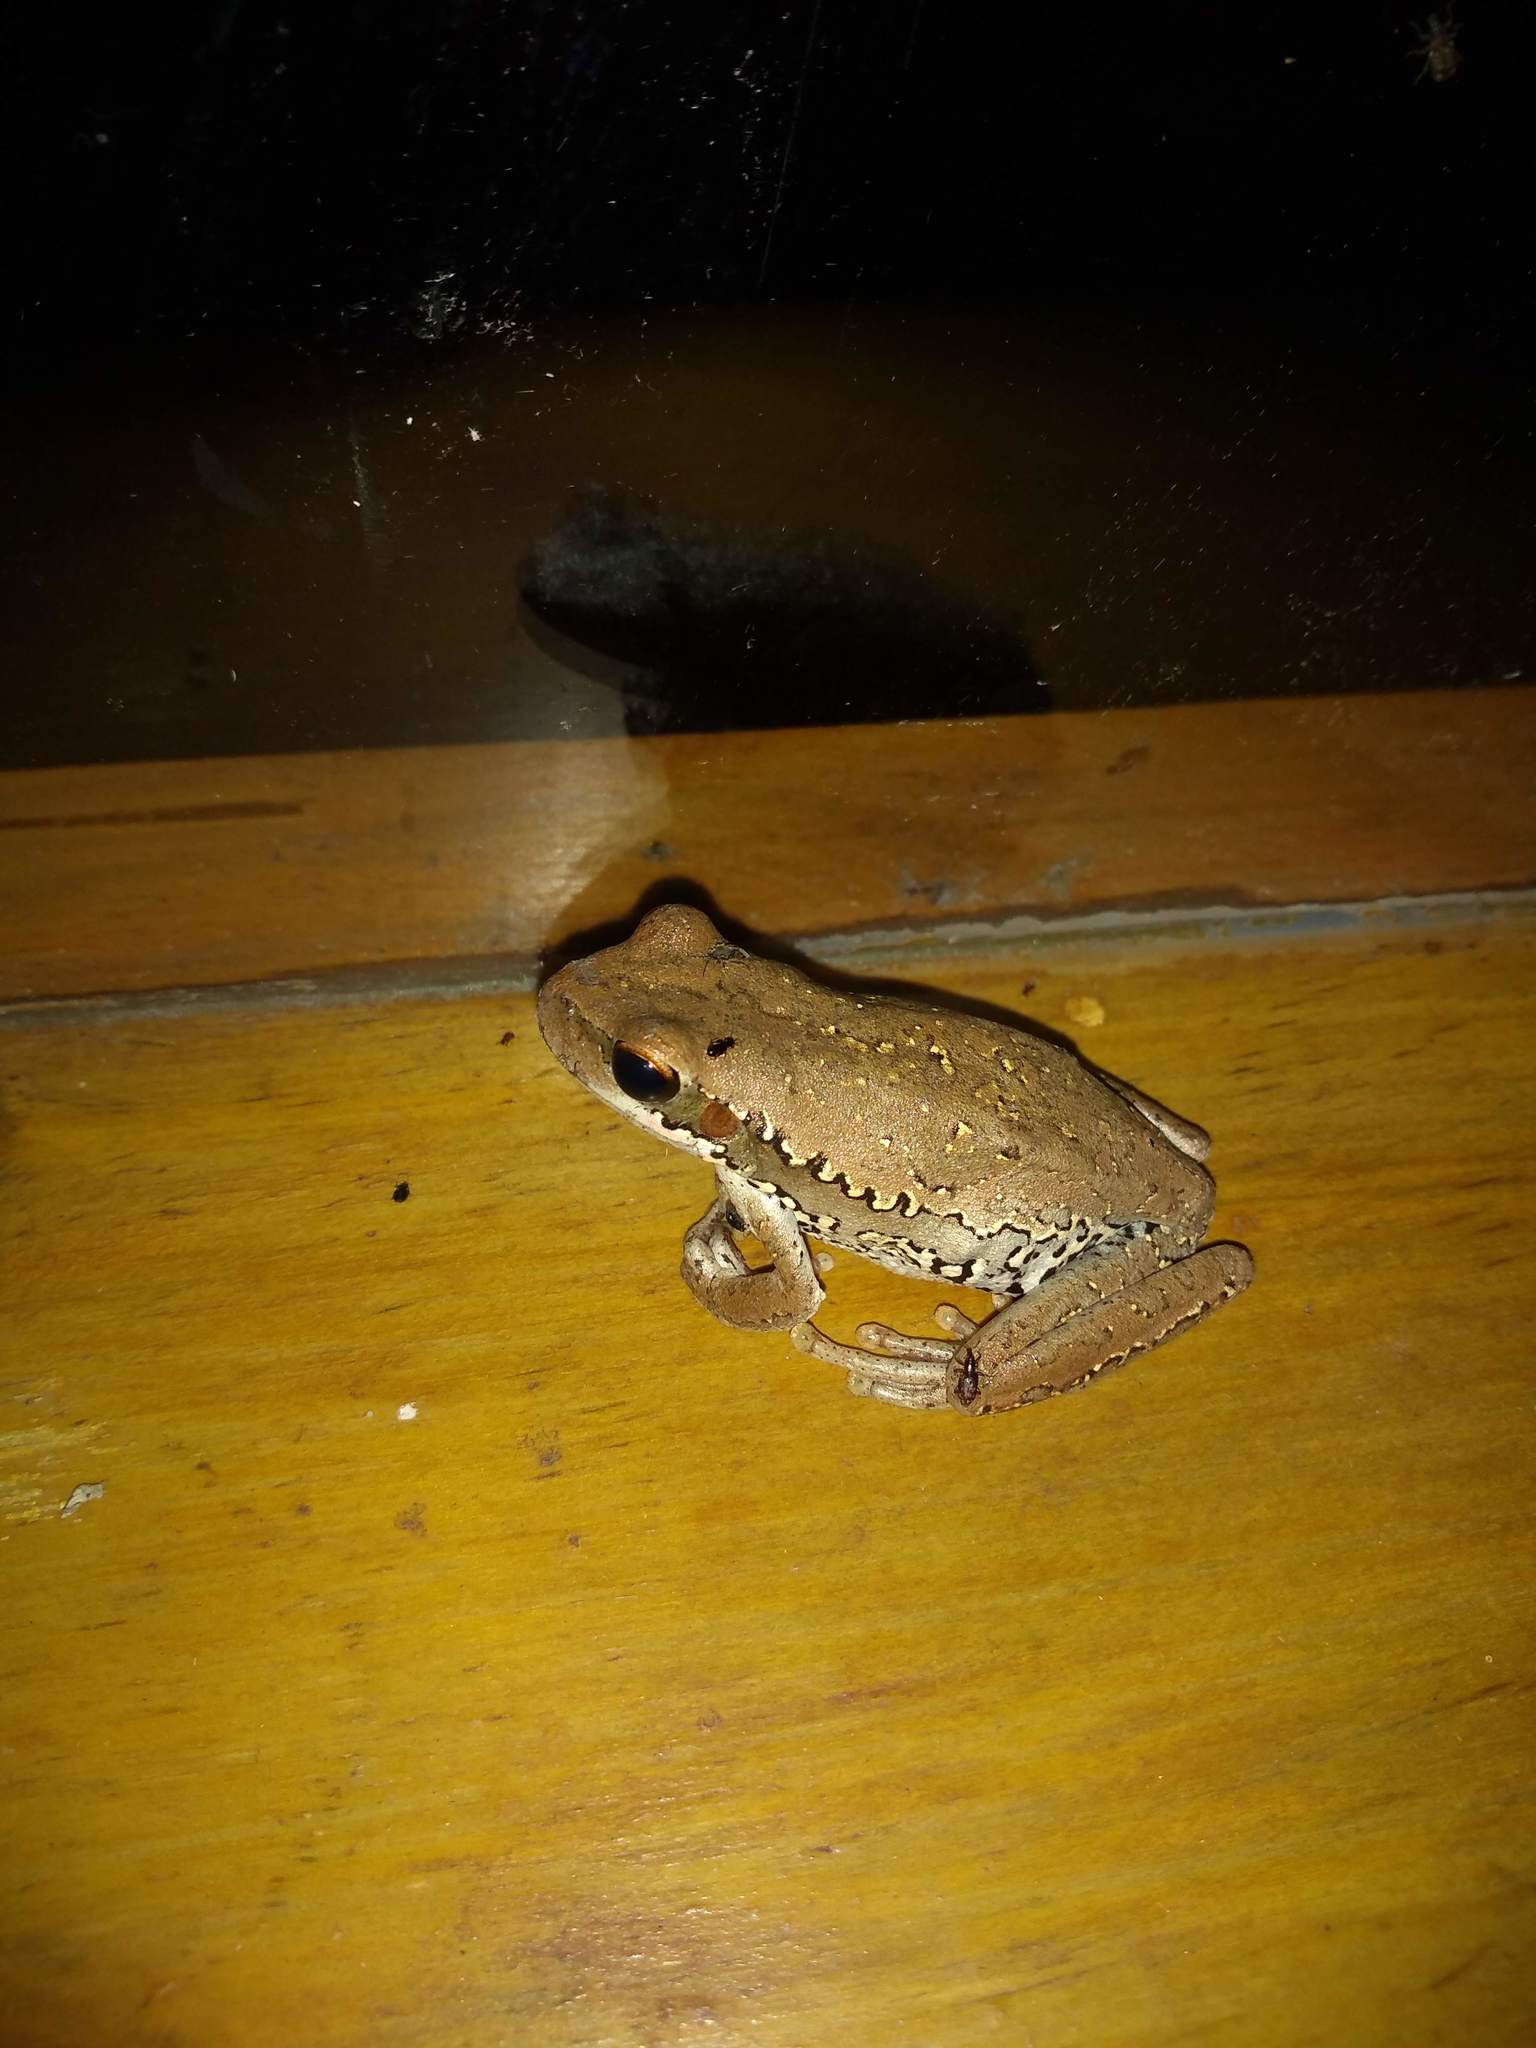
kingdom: Animalia
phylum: Chordata
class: Amphibia
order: Anura
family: Hylidae
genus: Boana
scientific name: Boana pulchella
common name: Montevideo treefrog
